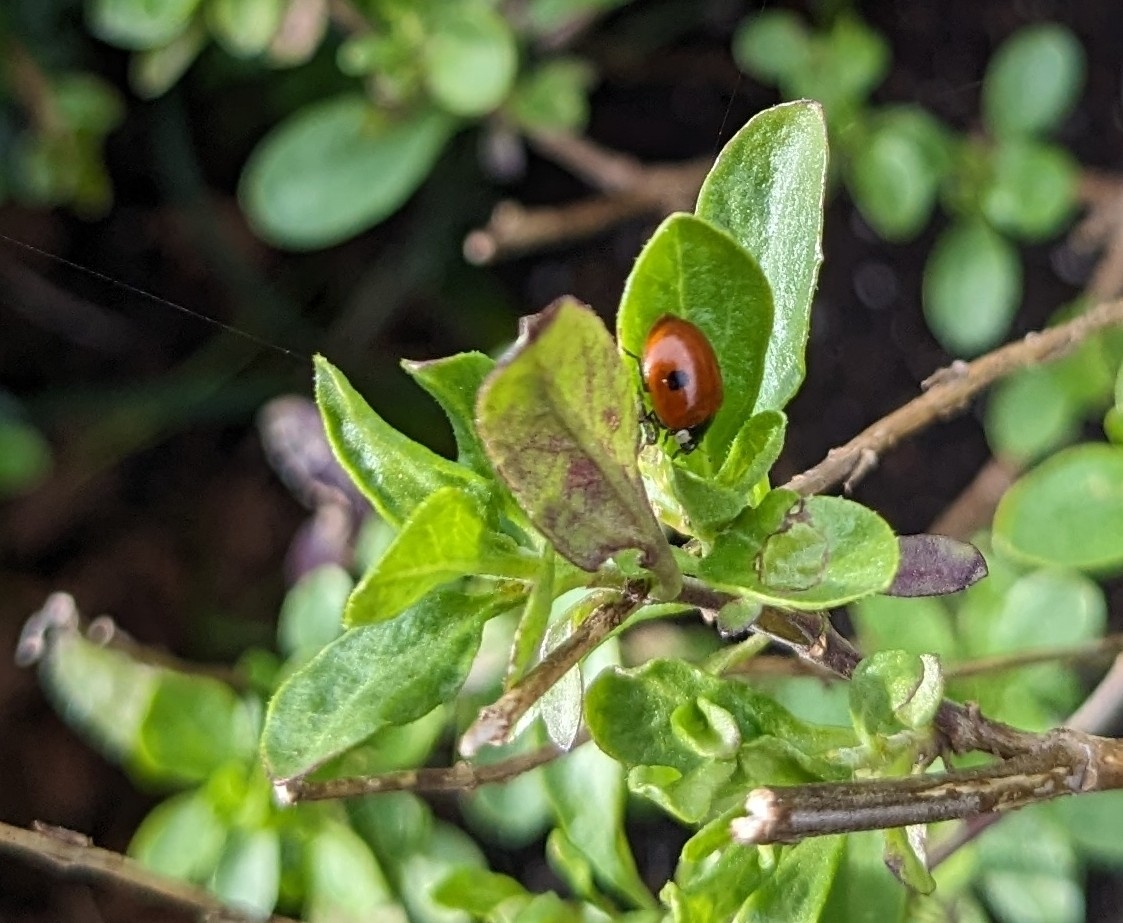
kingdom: Animalia
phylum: Arthropoda
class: Insecta
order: Coleoptera
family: Coccinellidae
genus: Adalia
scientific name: Adalia bipunctata
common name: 2-spot ladybird
